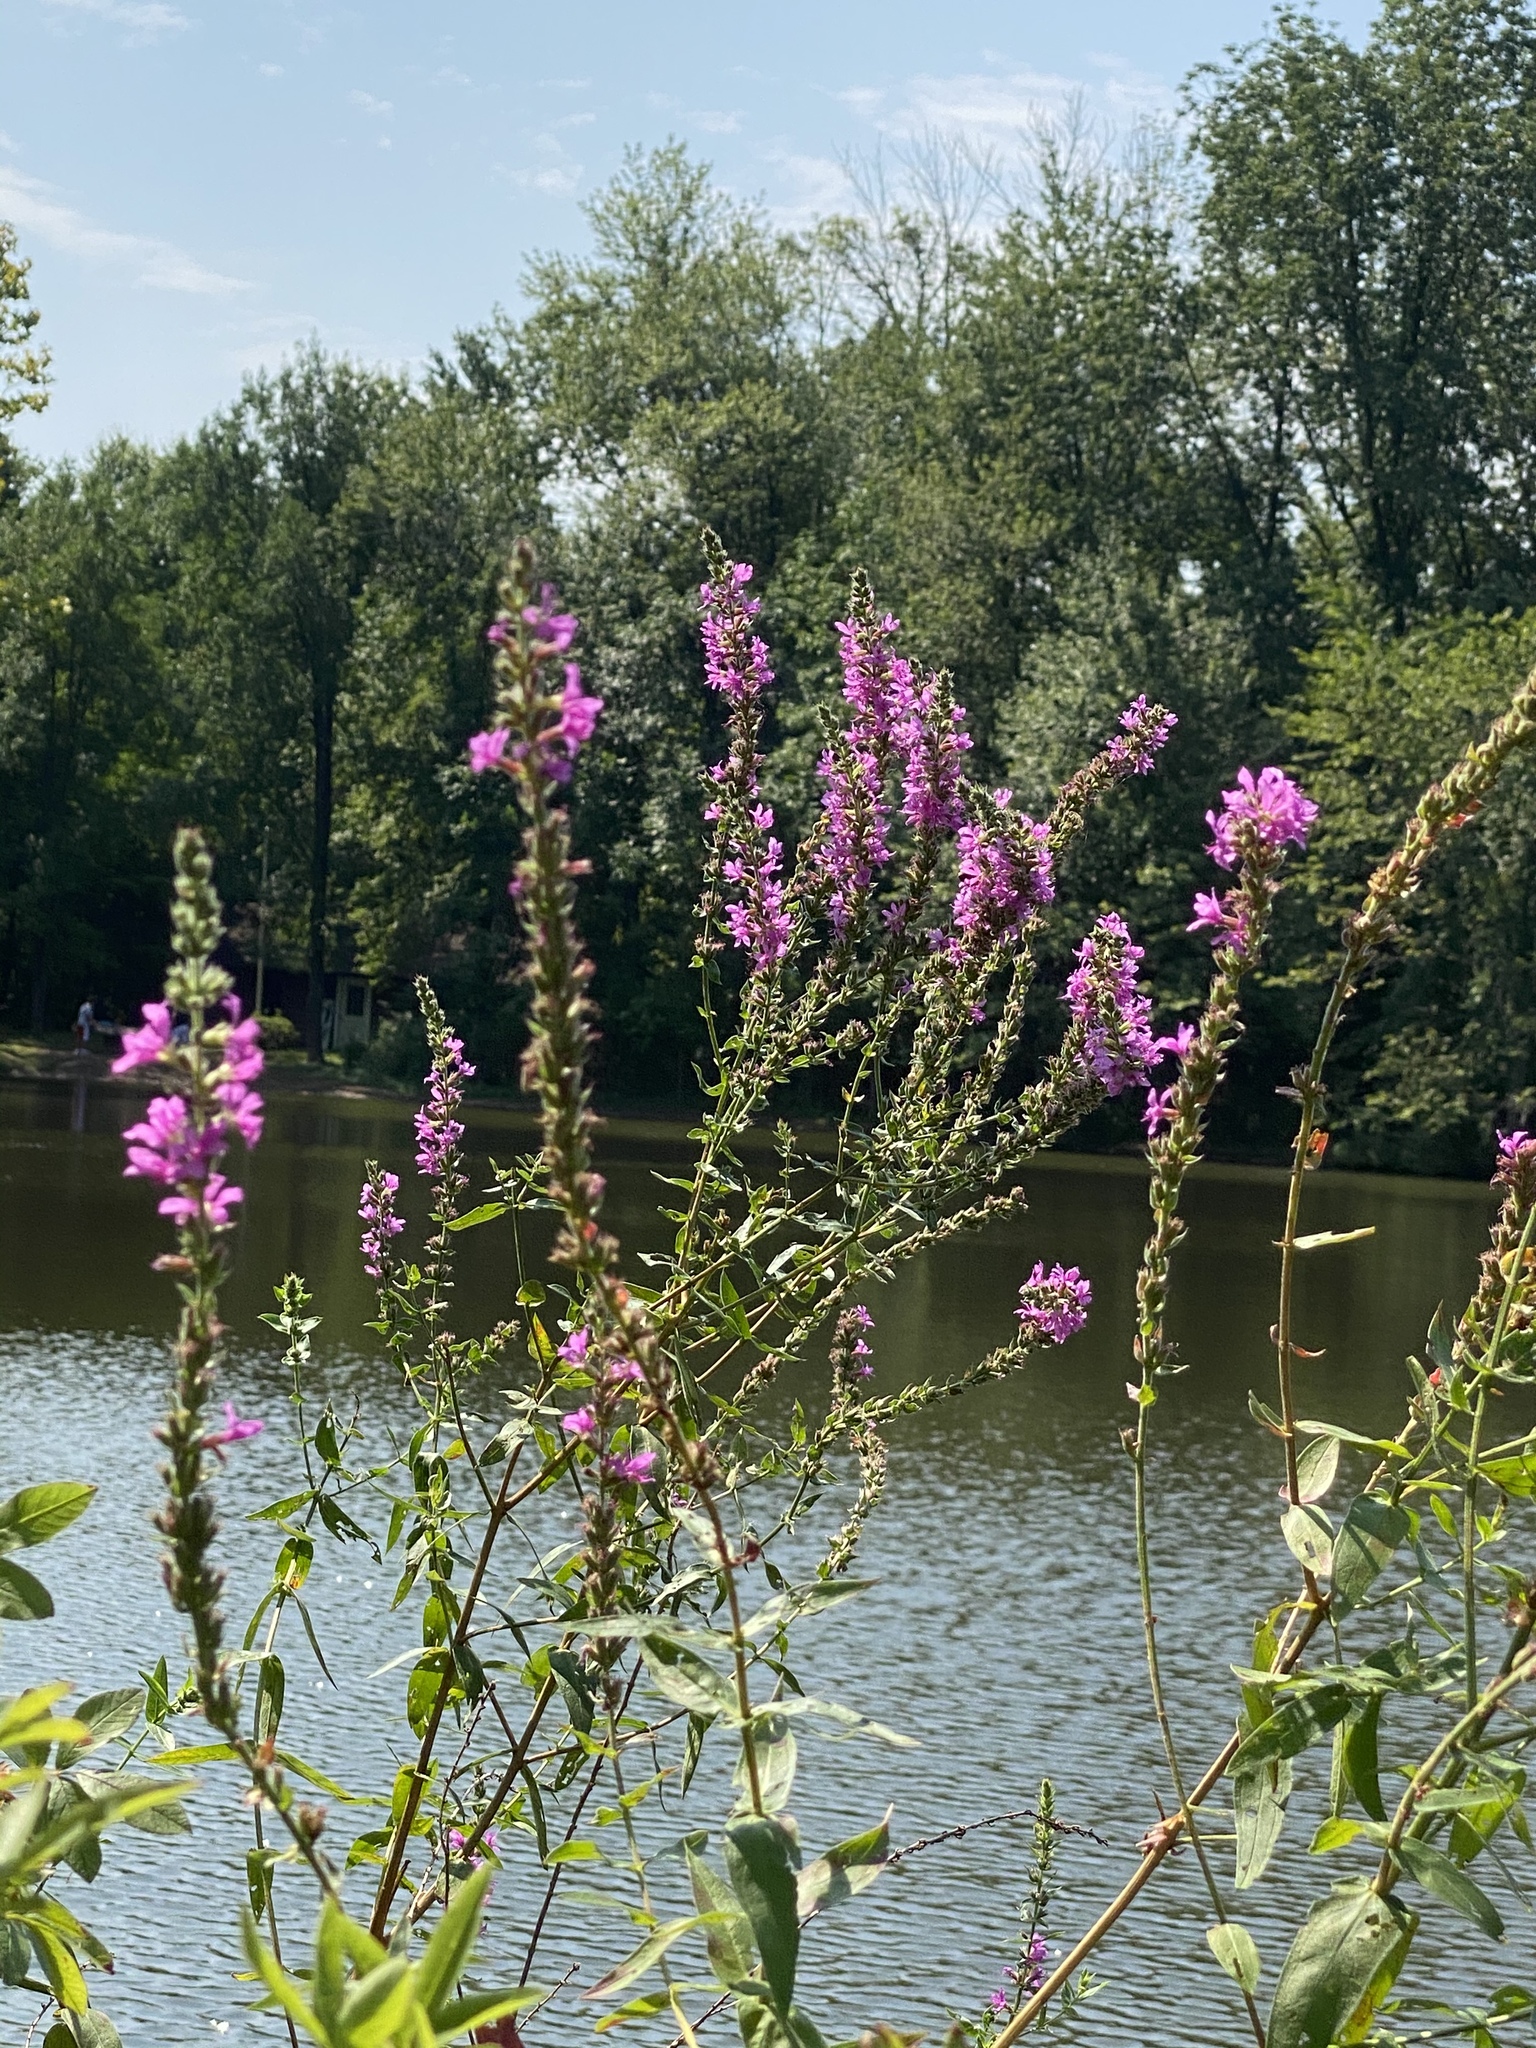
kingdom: Plantae
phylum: Tracheophyta
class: Magnoliopsida
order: Myrtales
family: Lythraceae
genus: Lythrum
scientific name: Lythrum salicaria
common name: Purple loosestrife
